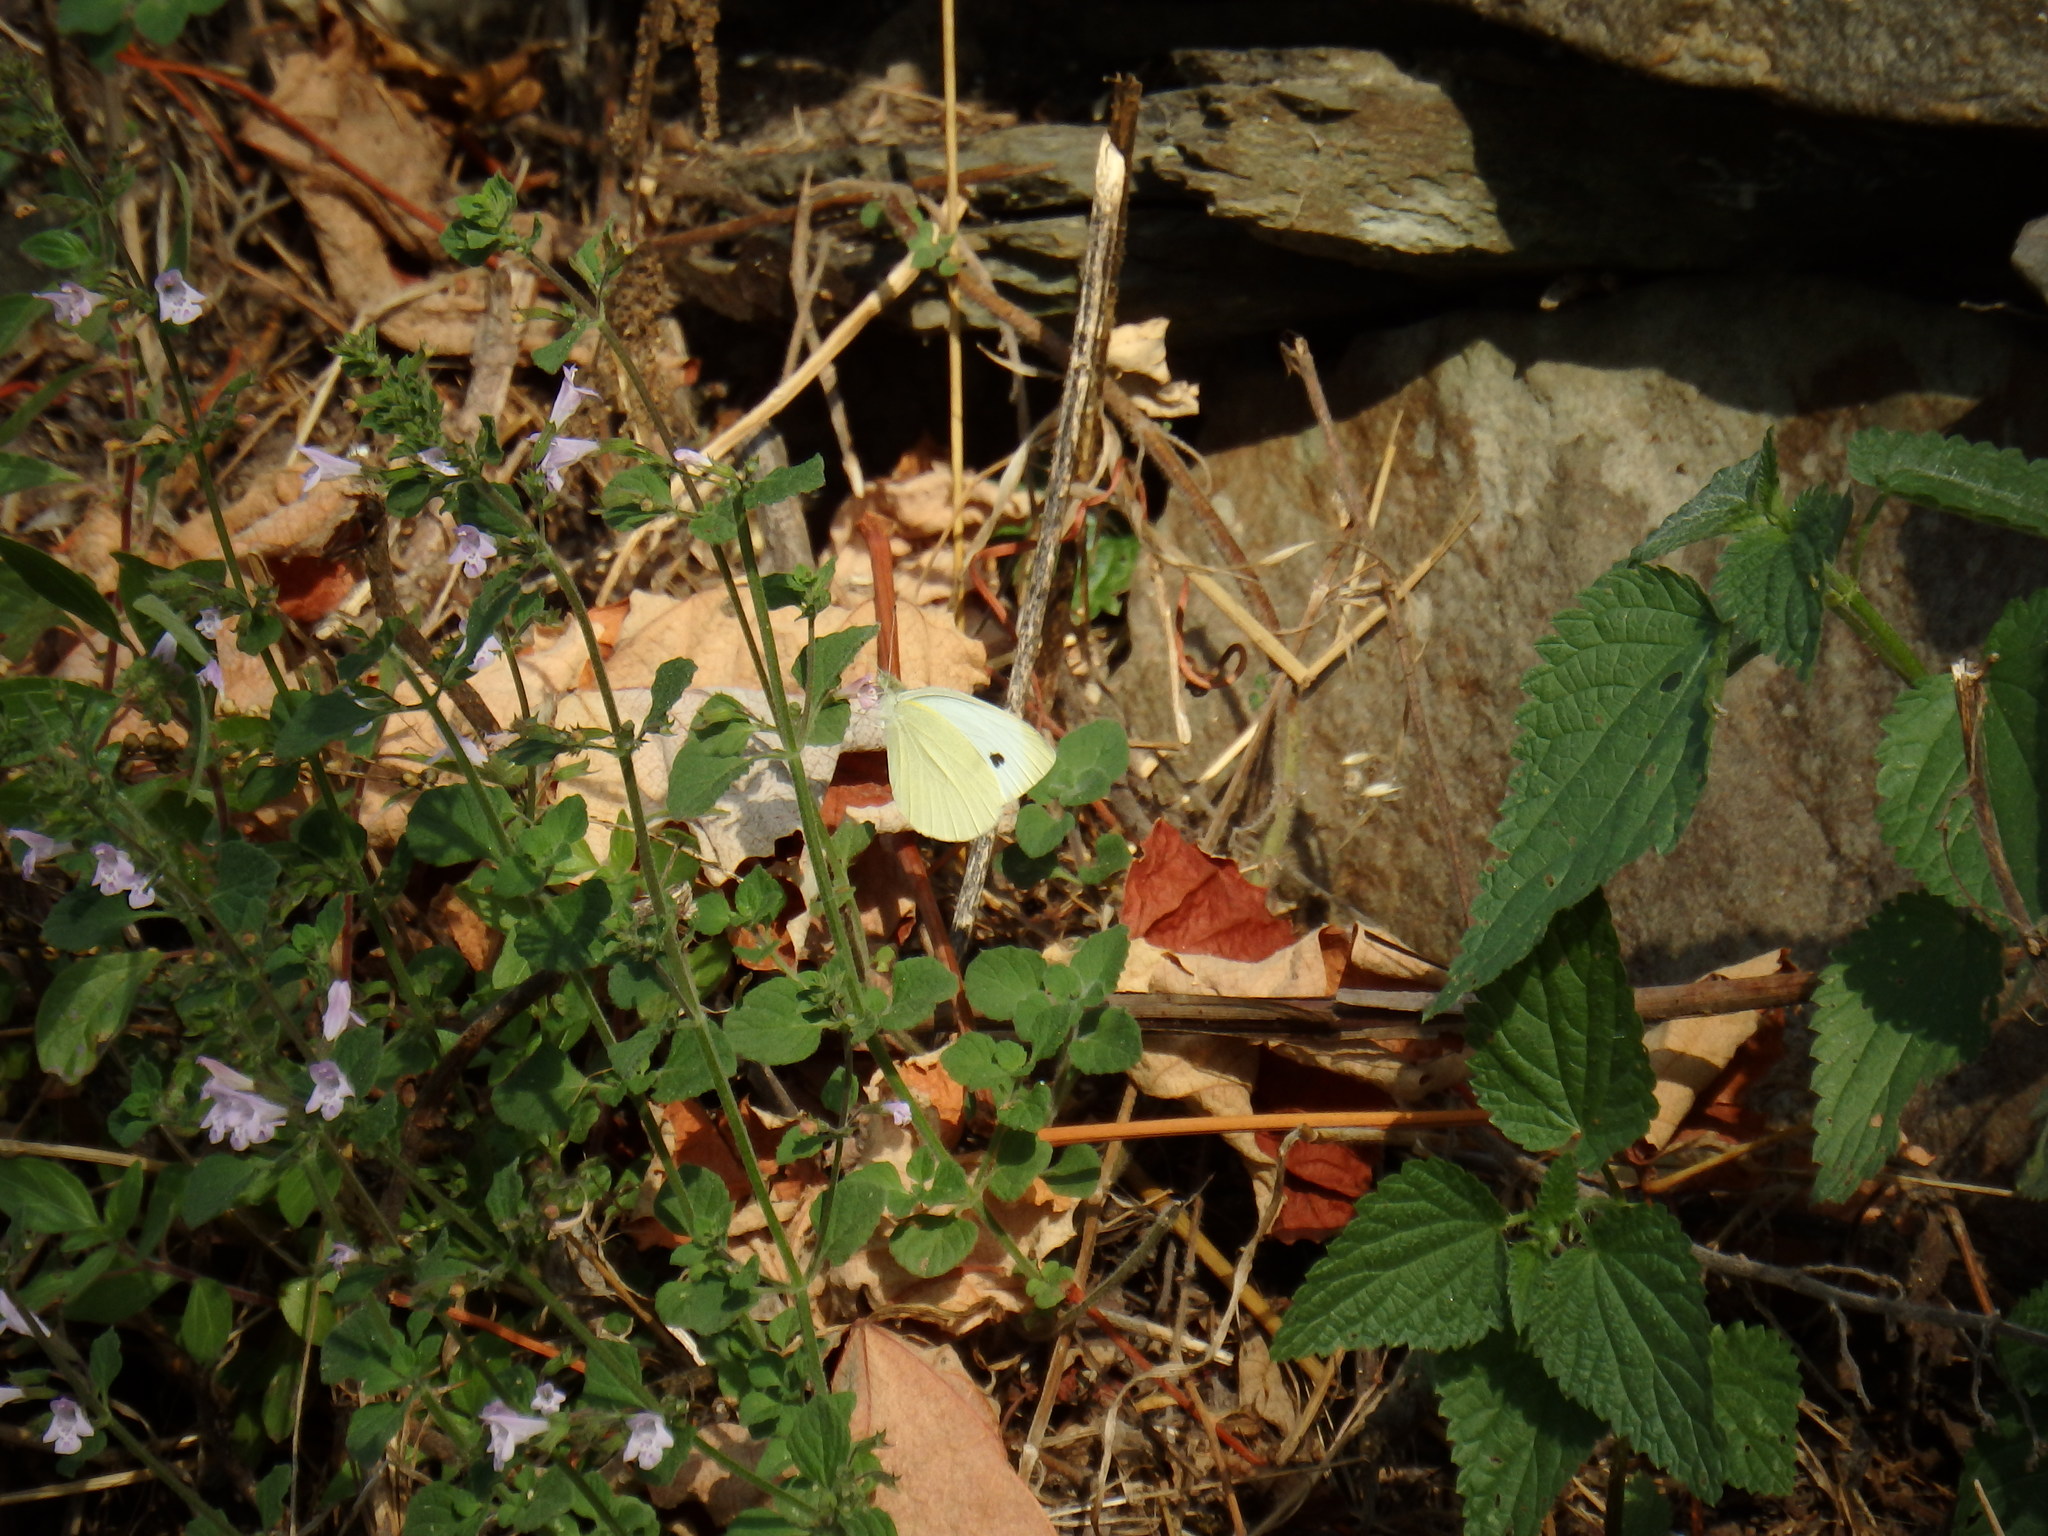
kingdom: Animalia
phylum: Arthropoda
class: Insecta
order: Lepidoptera
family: Pieridae
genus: Pieris
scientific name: Pieris rapae
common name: Small white
